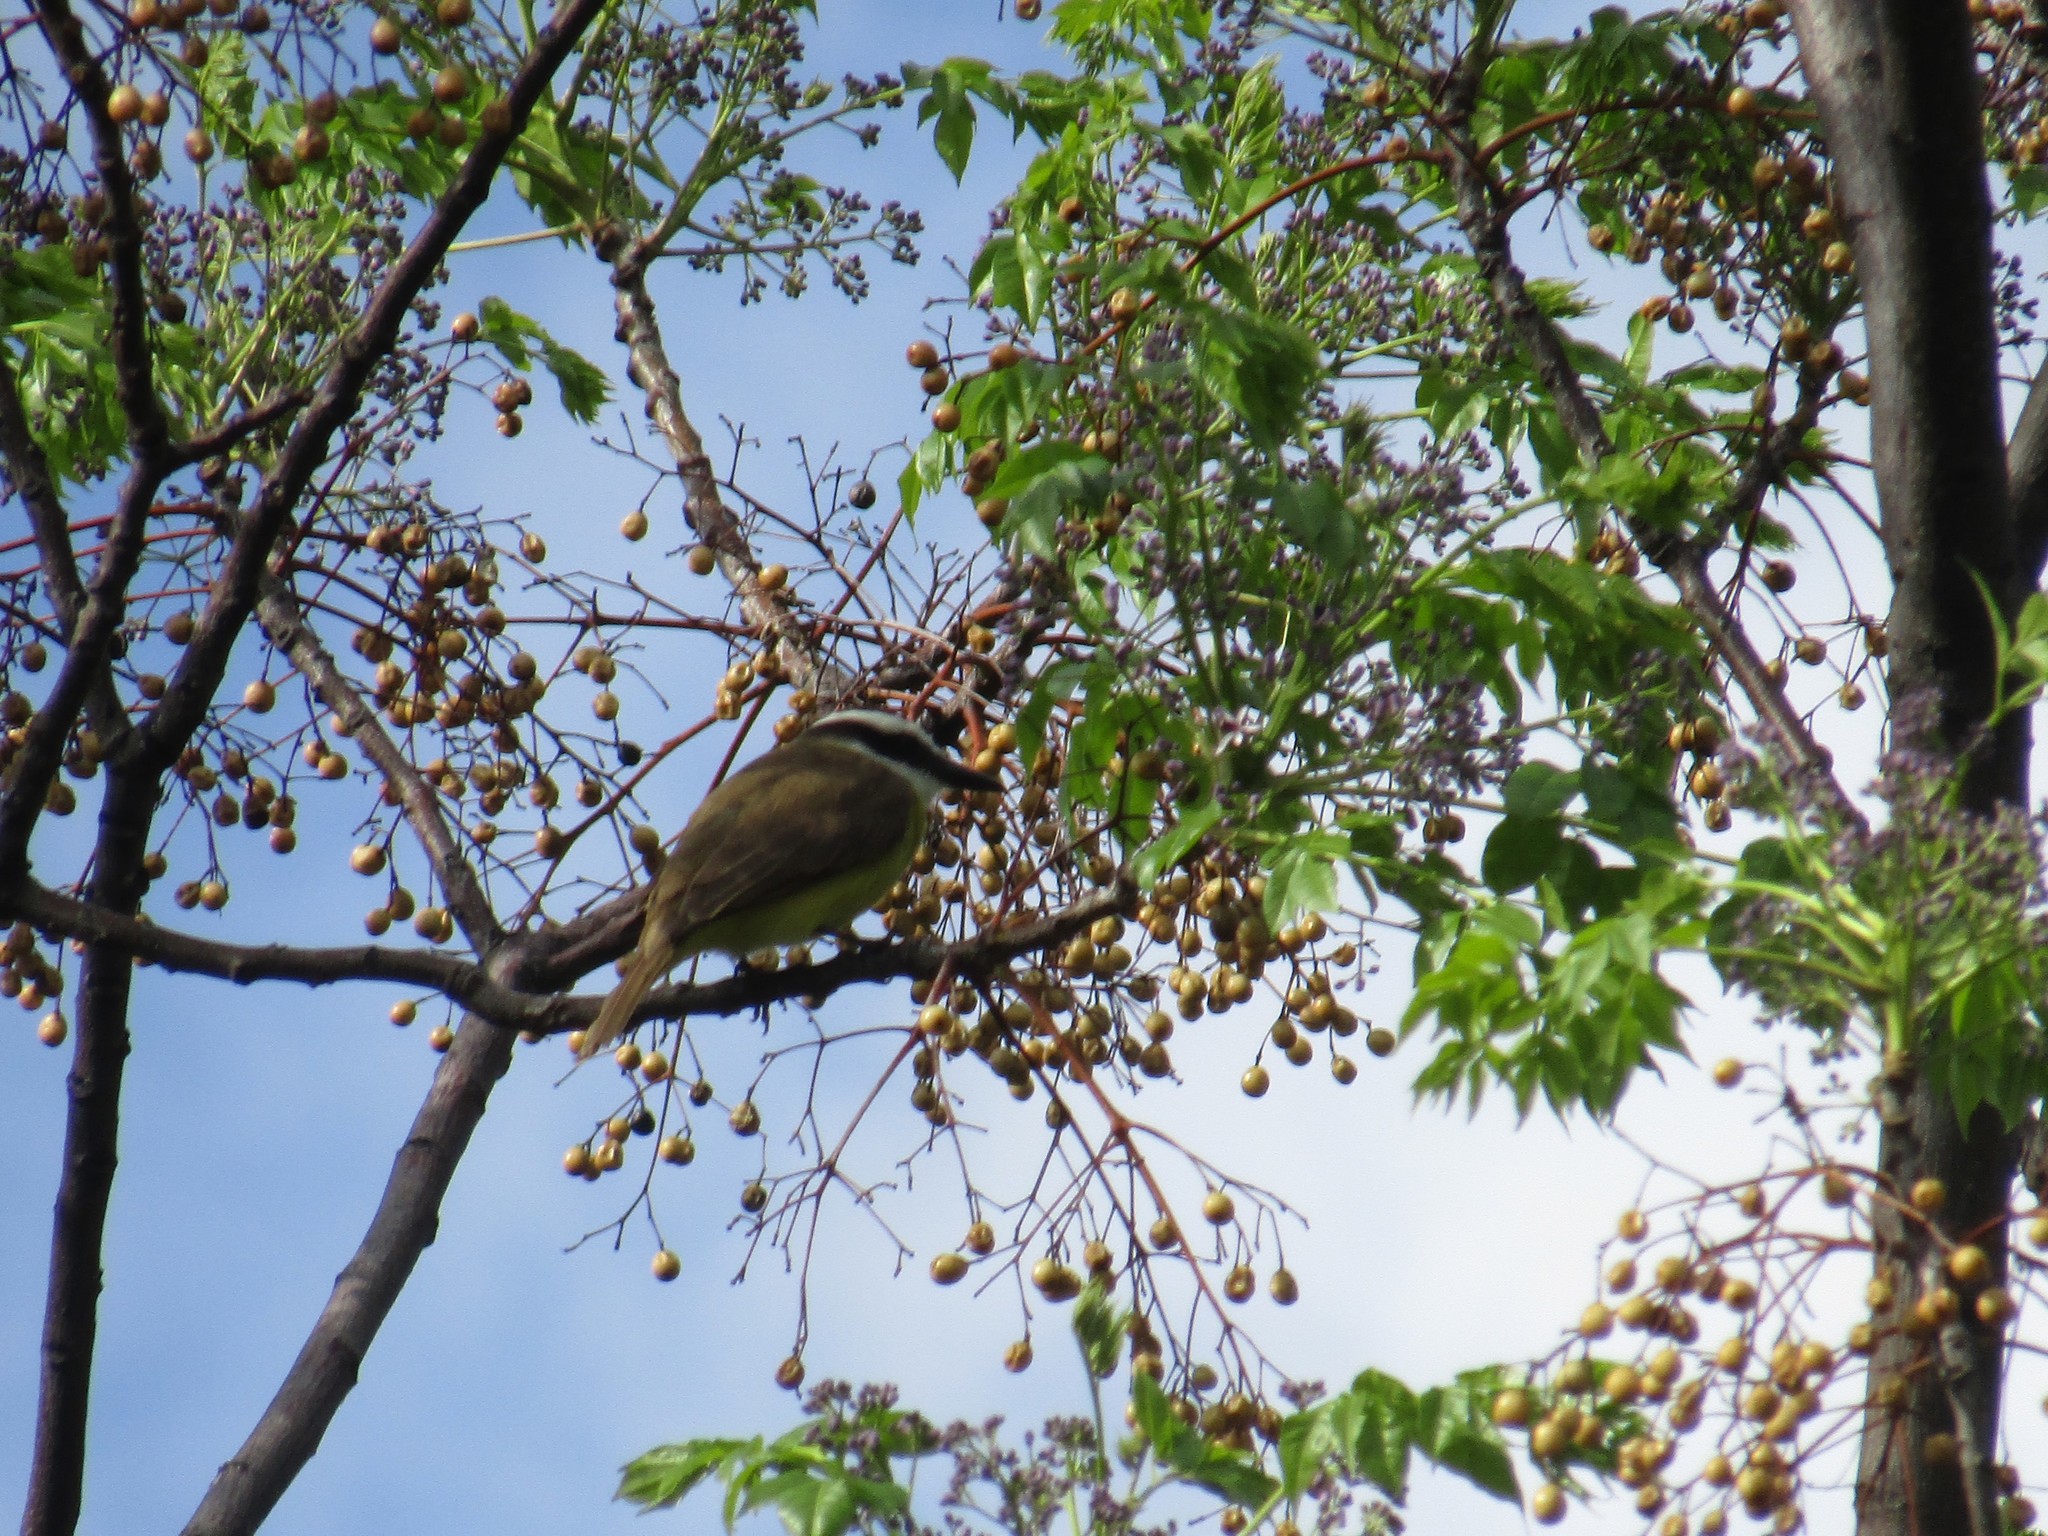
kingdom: Animalia
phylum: Chordata
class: Aves
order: Passeriformes
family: Tyrannidae
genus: Pitangus
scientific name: Pitangus sulphuratus
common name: Great kiskadee
